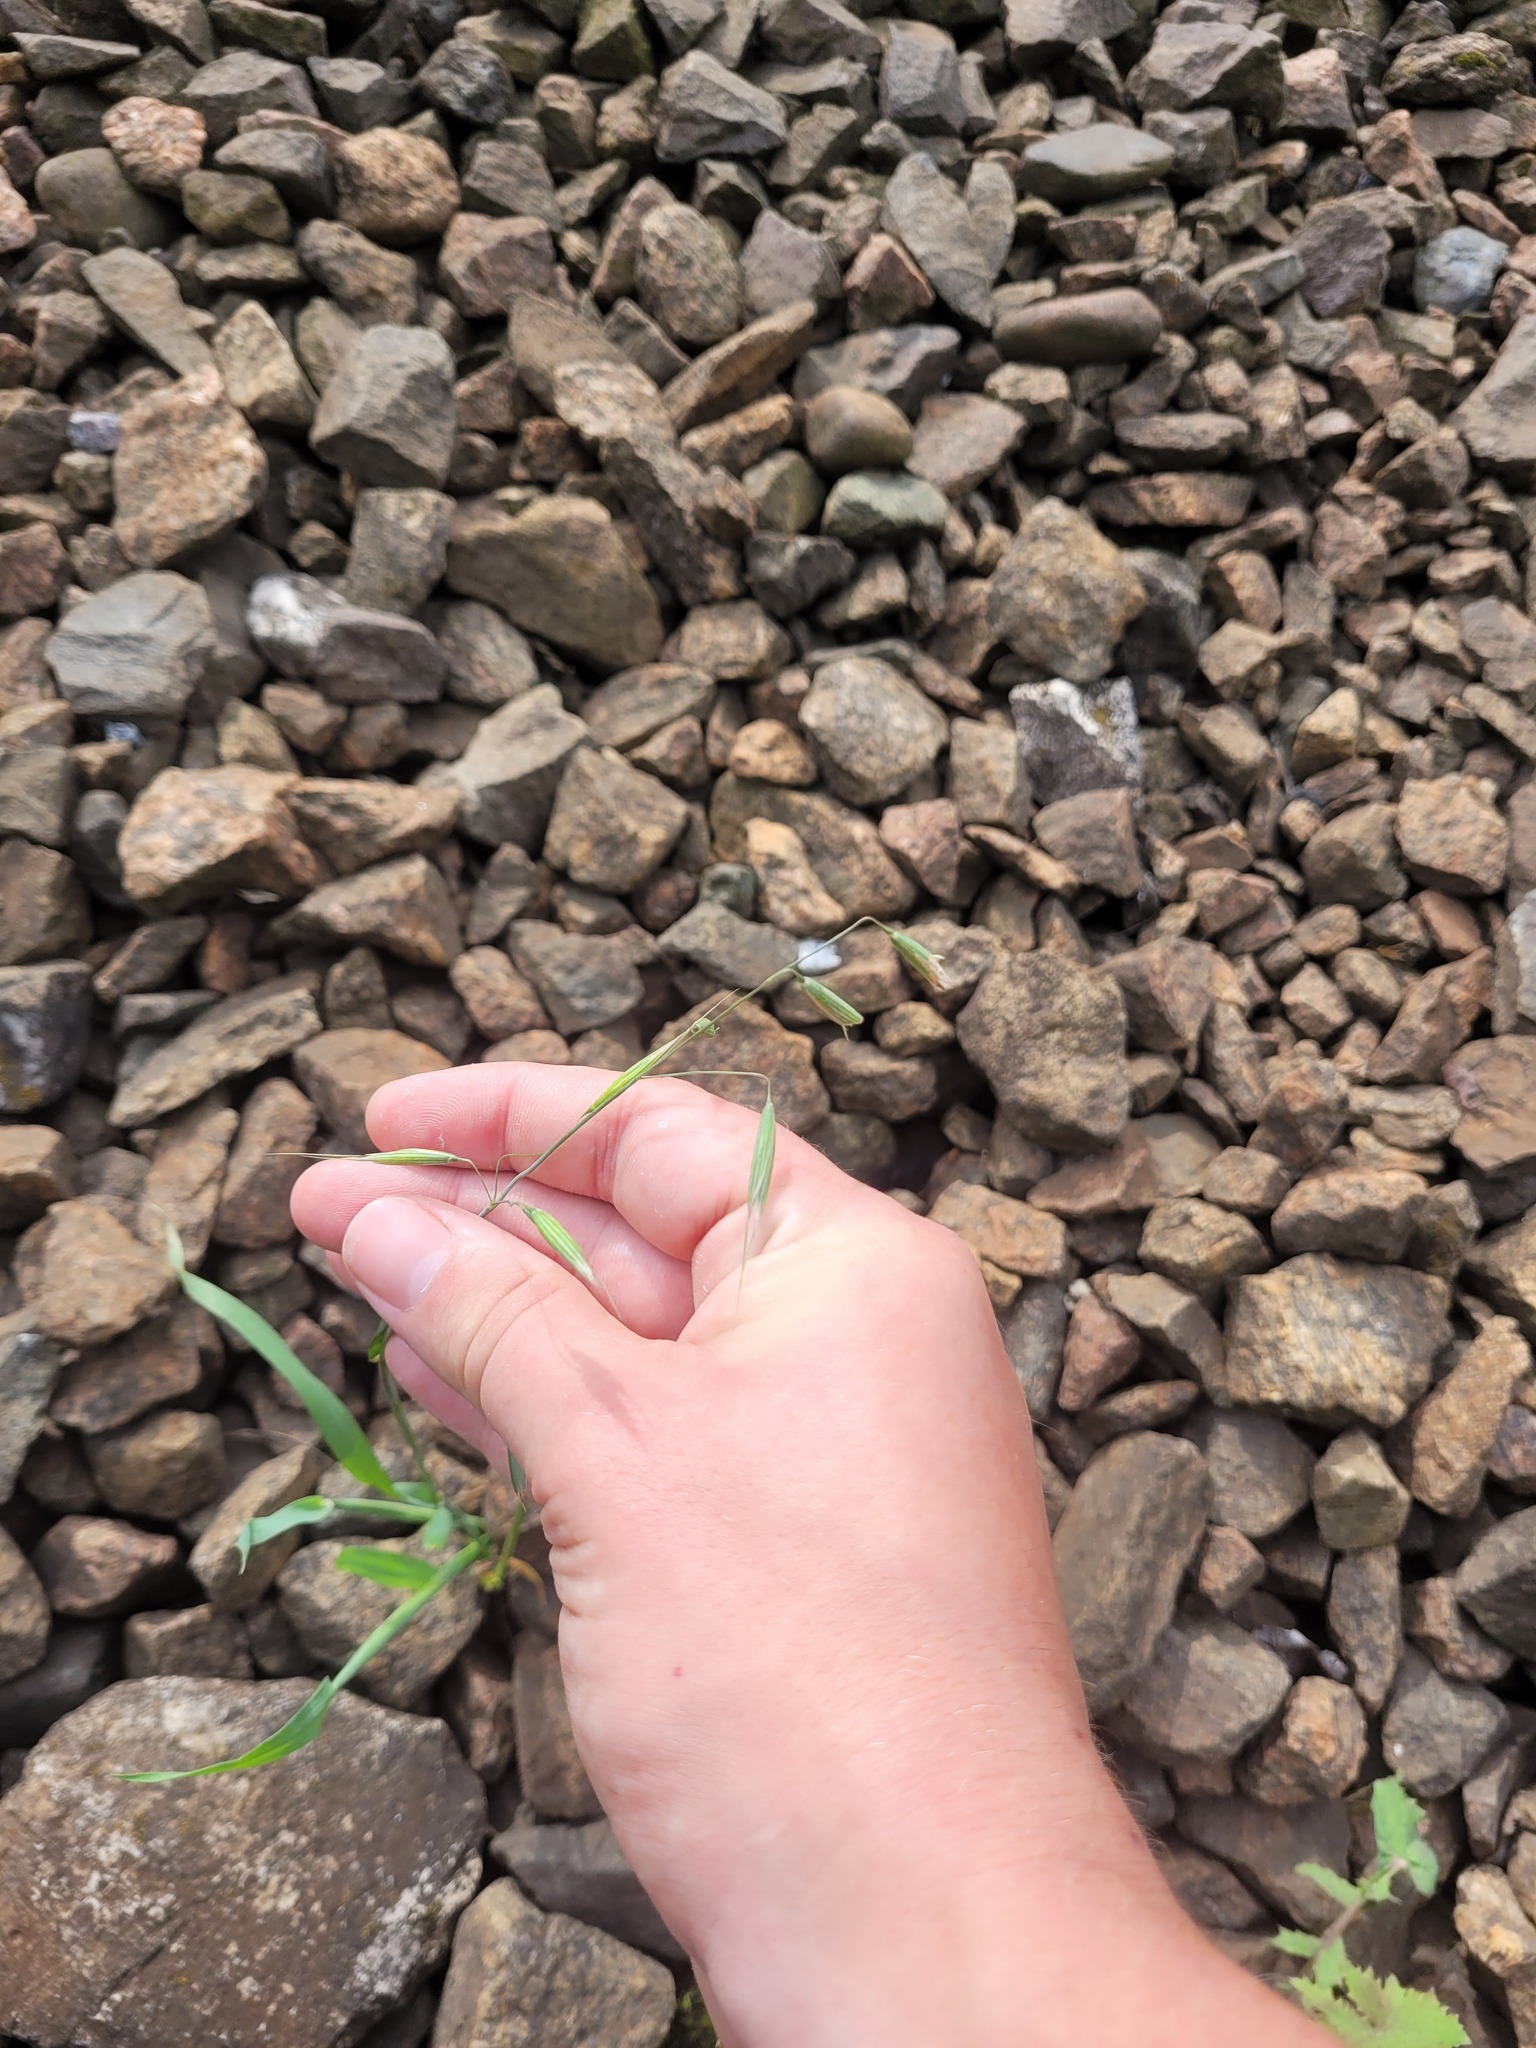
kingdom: Plantae
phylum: Tracheophyta
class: Liliopsida
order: Poales
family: Poaceae
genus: Avena
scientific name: Avena fatua
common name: Wild oat
